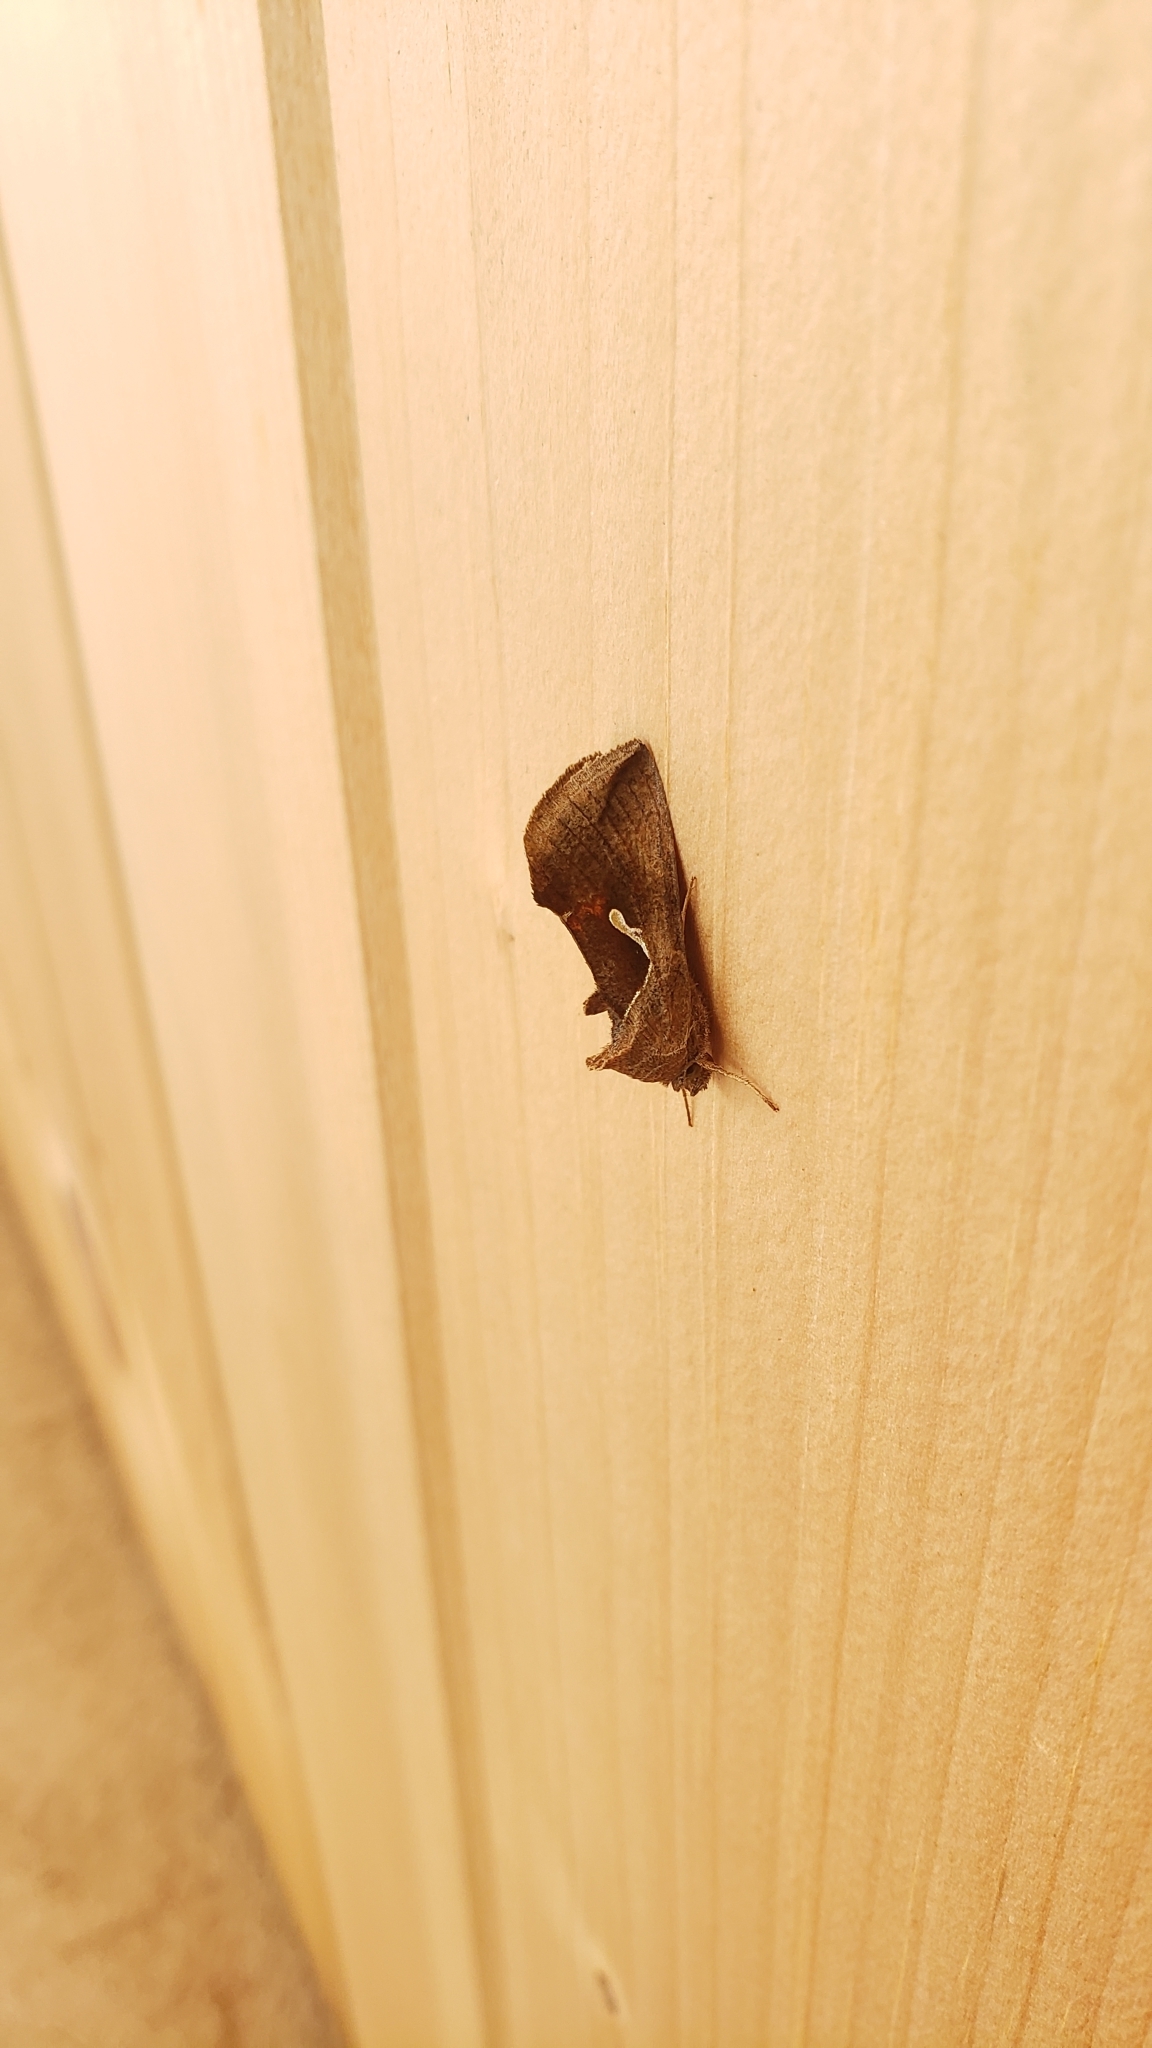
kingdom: Animalia
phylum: Arthropoda
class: Insecta
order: Lepidoptera
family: Noctuidae
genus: Anagrapha
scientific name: Anagrapha falcifera
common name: Celery looper
